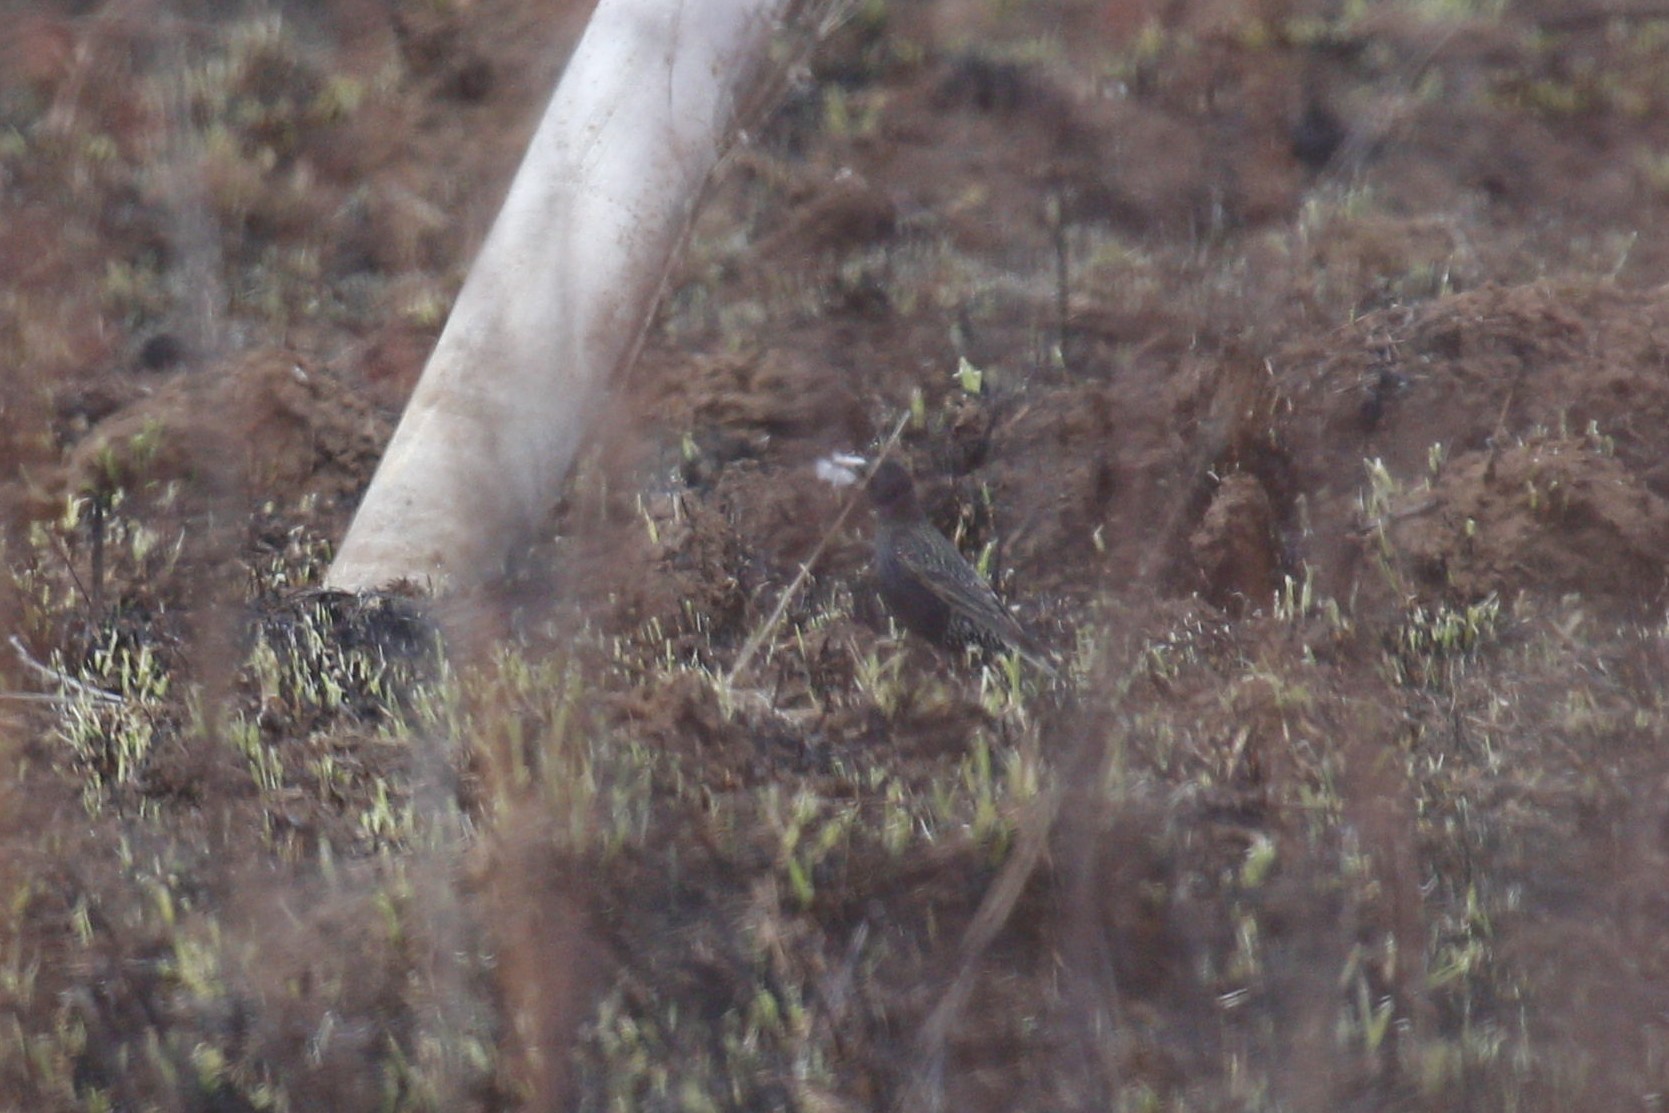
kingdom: Animalia
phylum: Chordata
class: Aves
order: Passeriformes
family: Sturnidae
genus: Sturnus
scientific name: Sturnus vulgaris
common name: Common starling
